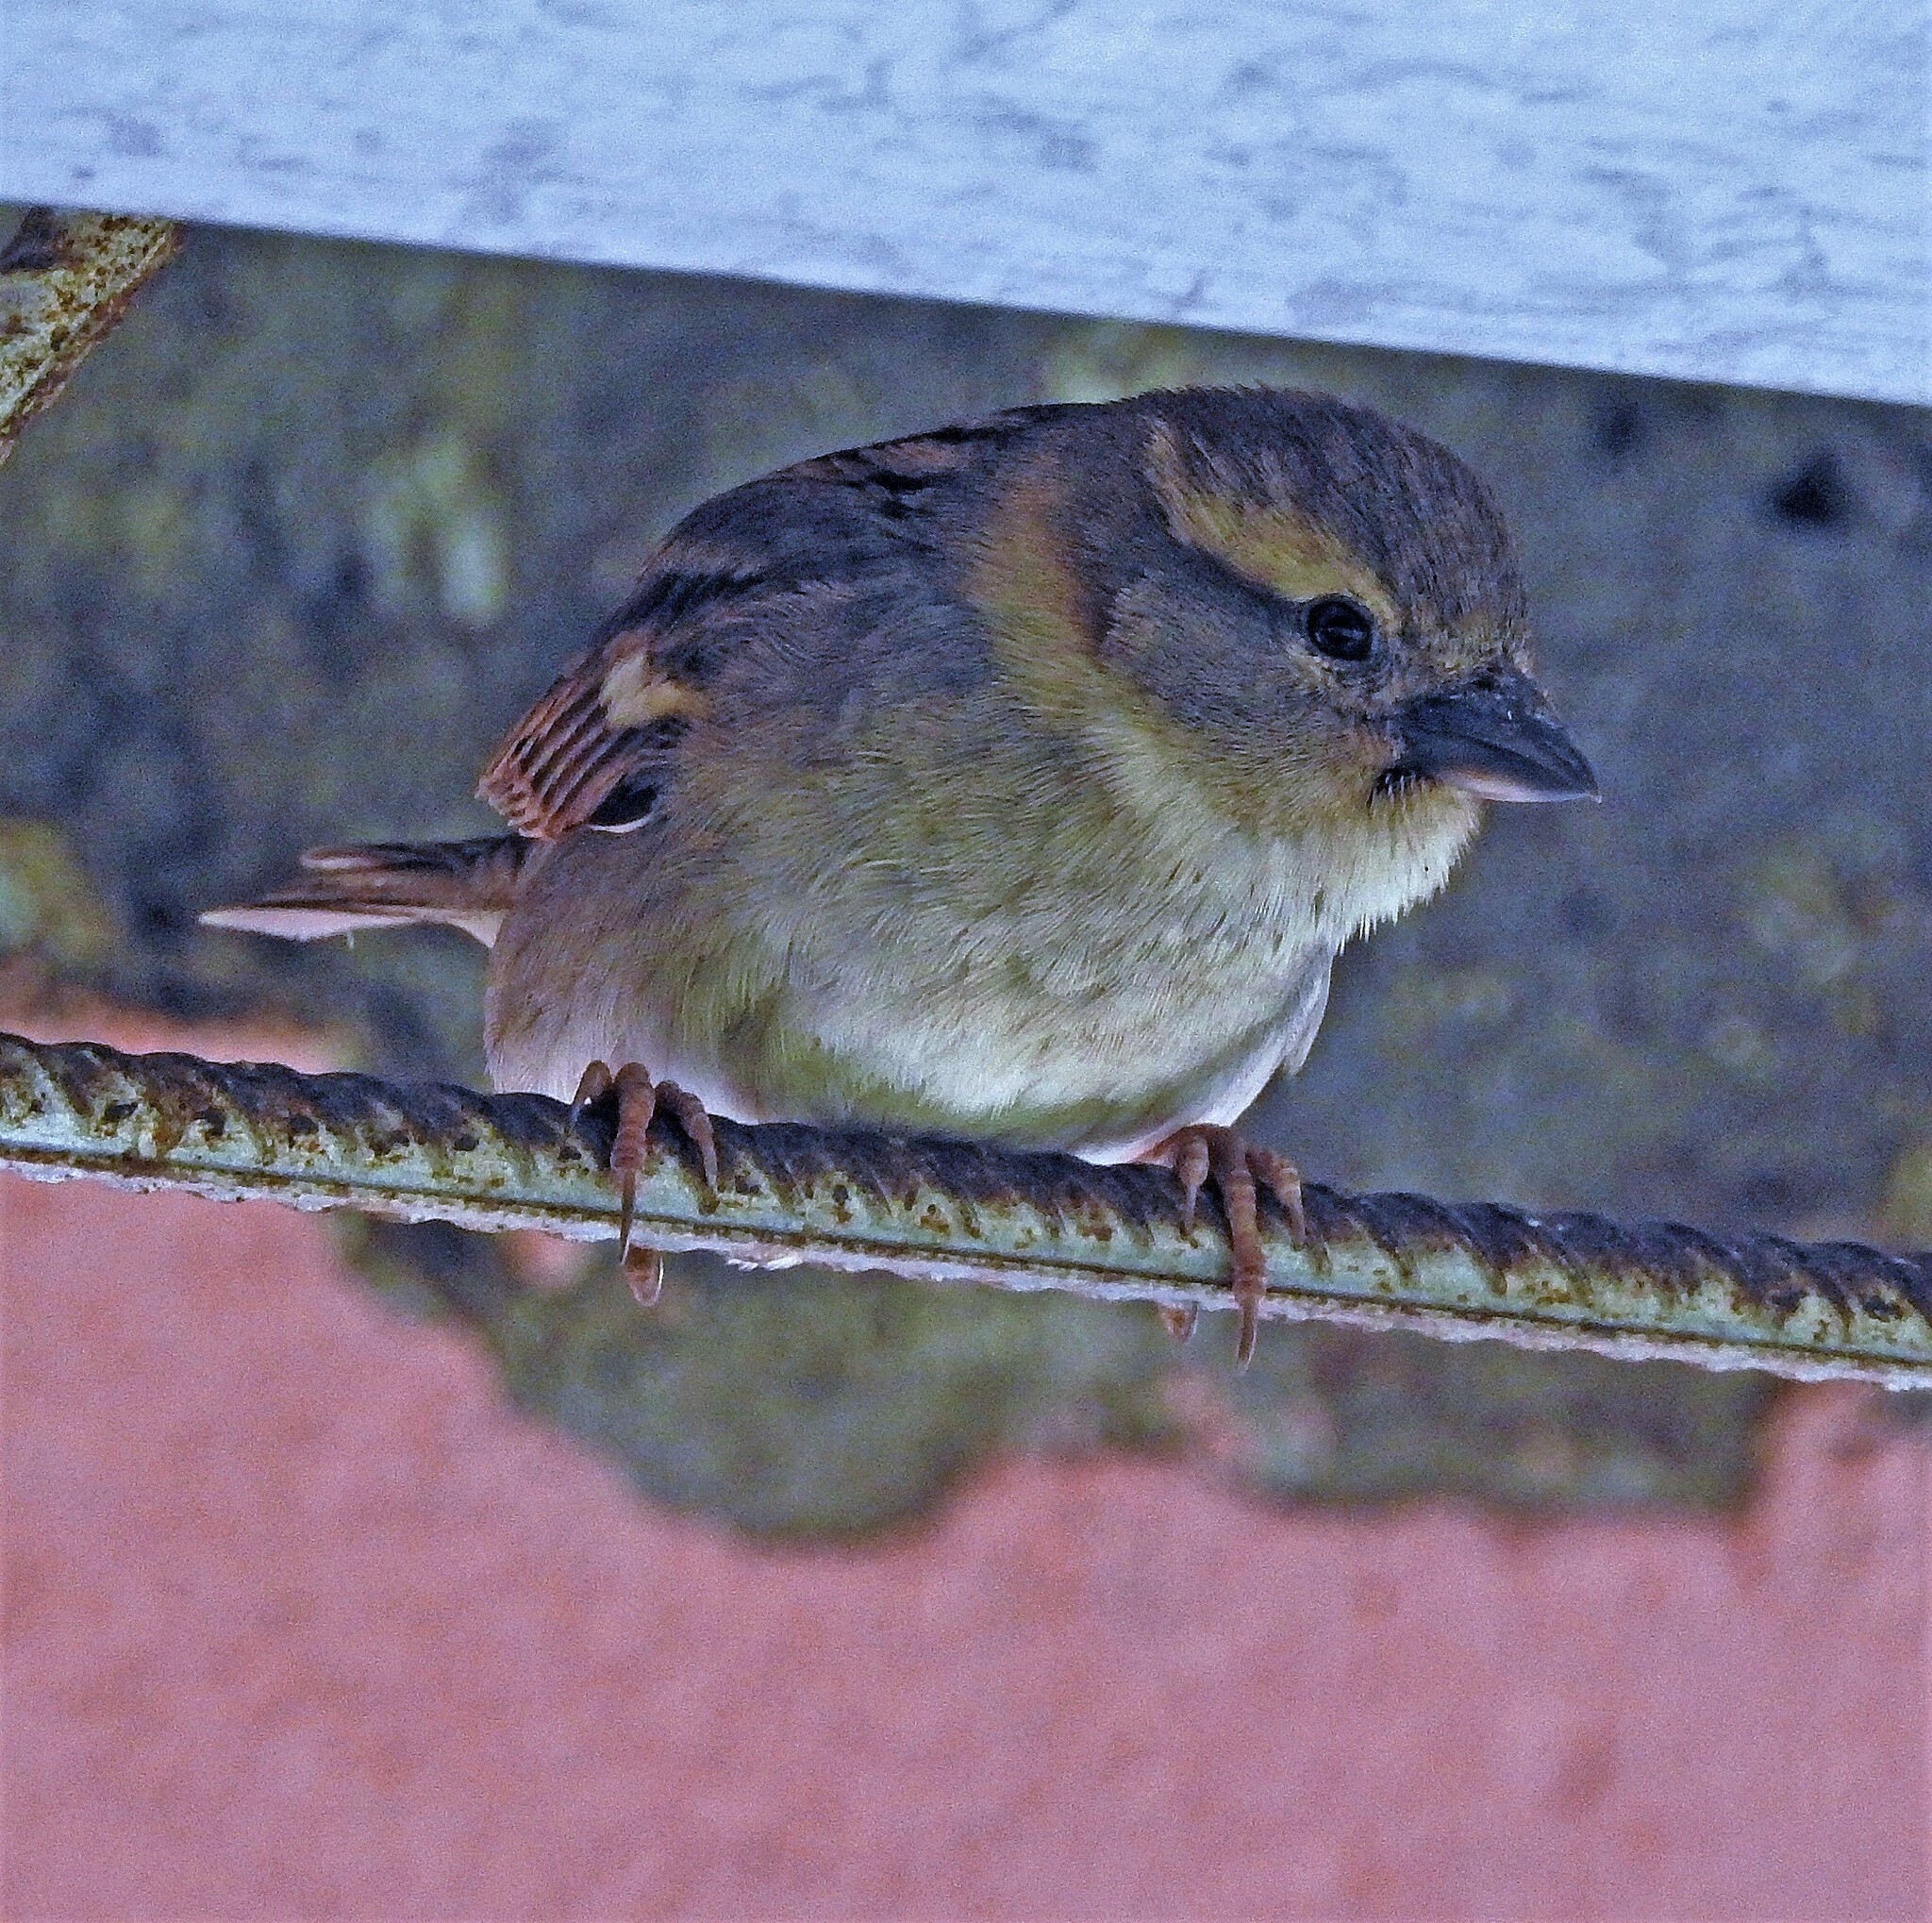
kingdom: Animalia
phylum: Chordata
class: Aves
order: Passeriformes
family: Passeridae
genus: Passer
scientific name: Passer domesticus
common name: House sparrow
